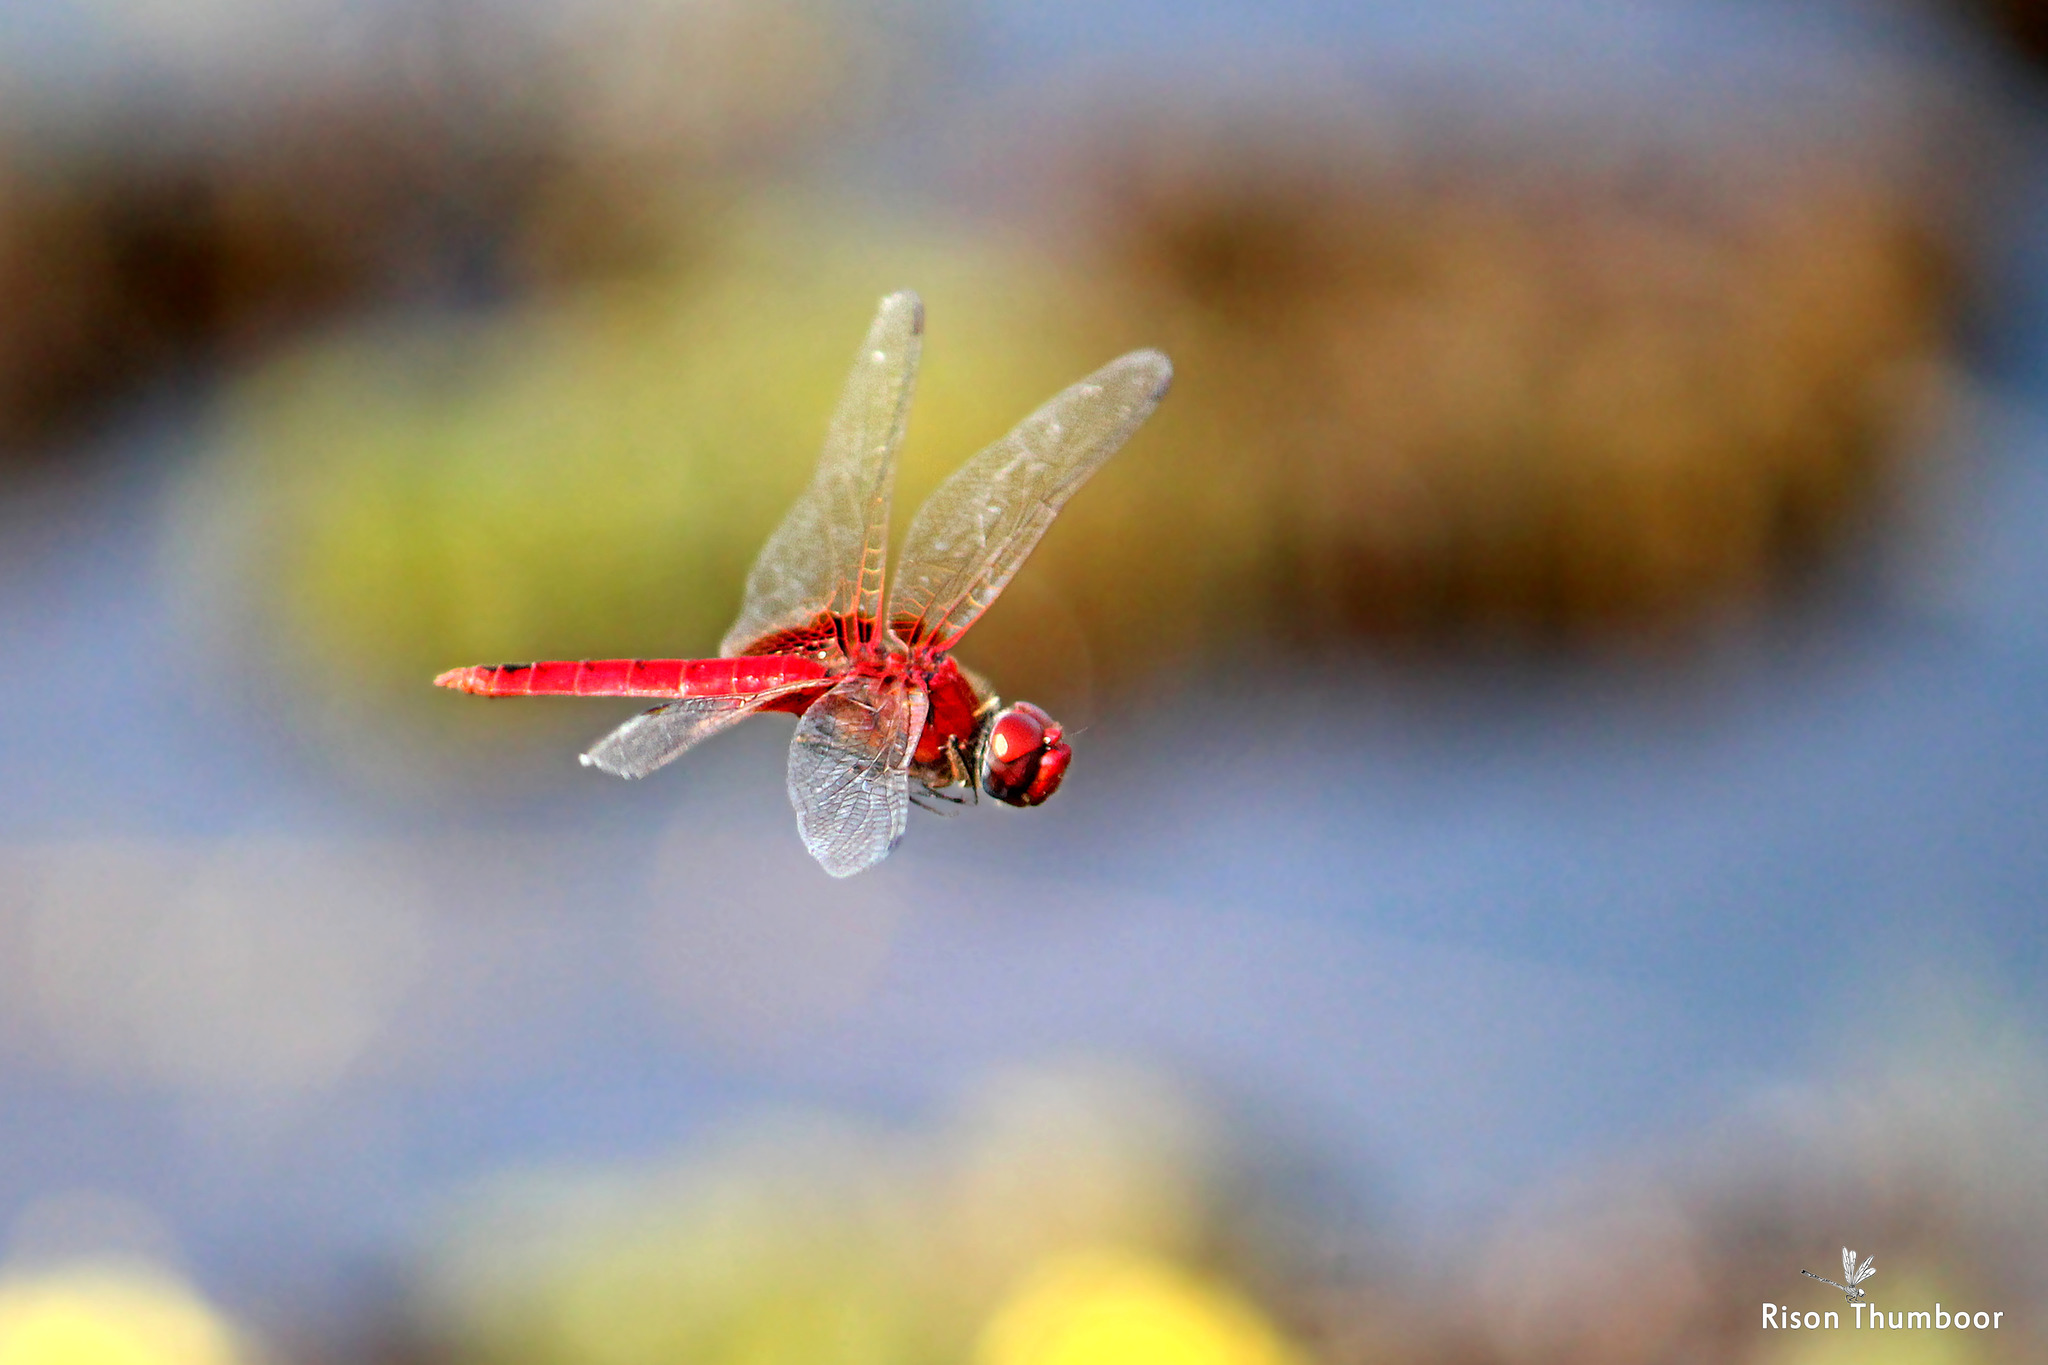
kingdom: Animalia
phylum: Arthropoda
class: Insecta
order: Odonata
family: Libellulidae
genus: Urothemis
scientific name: Urothemis signata
